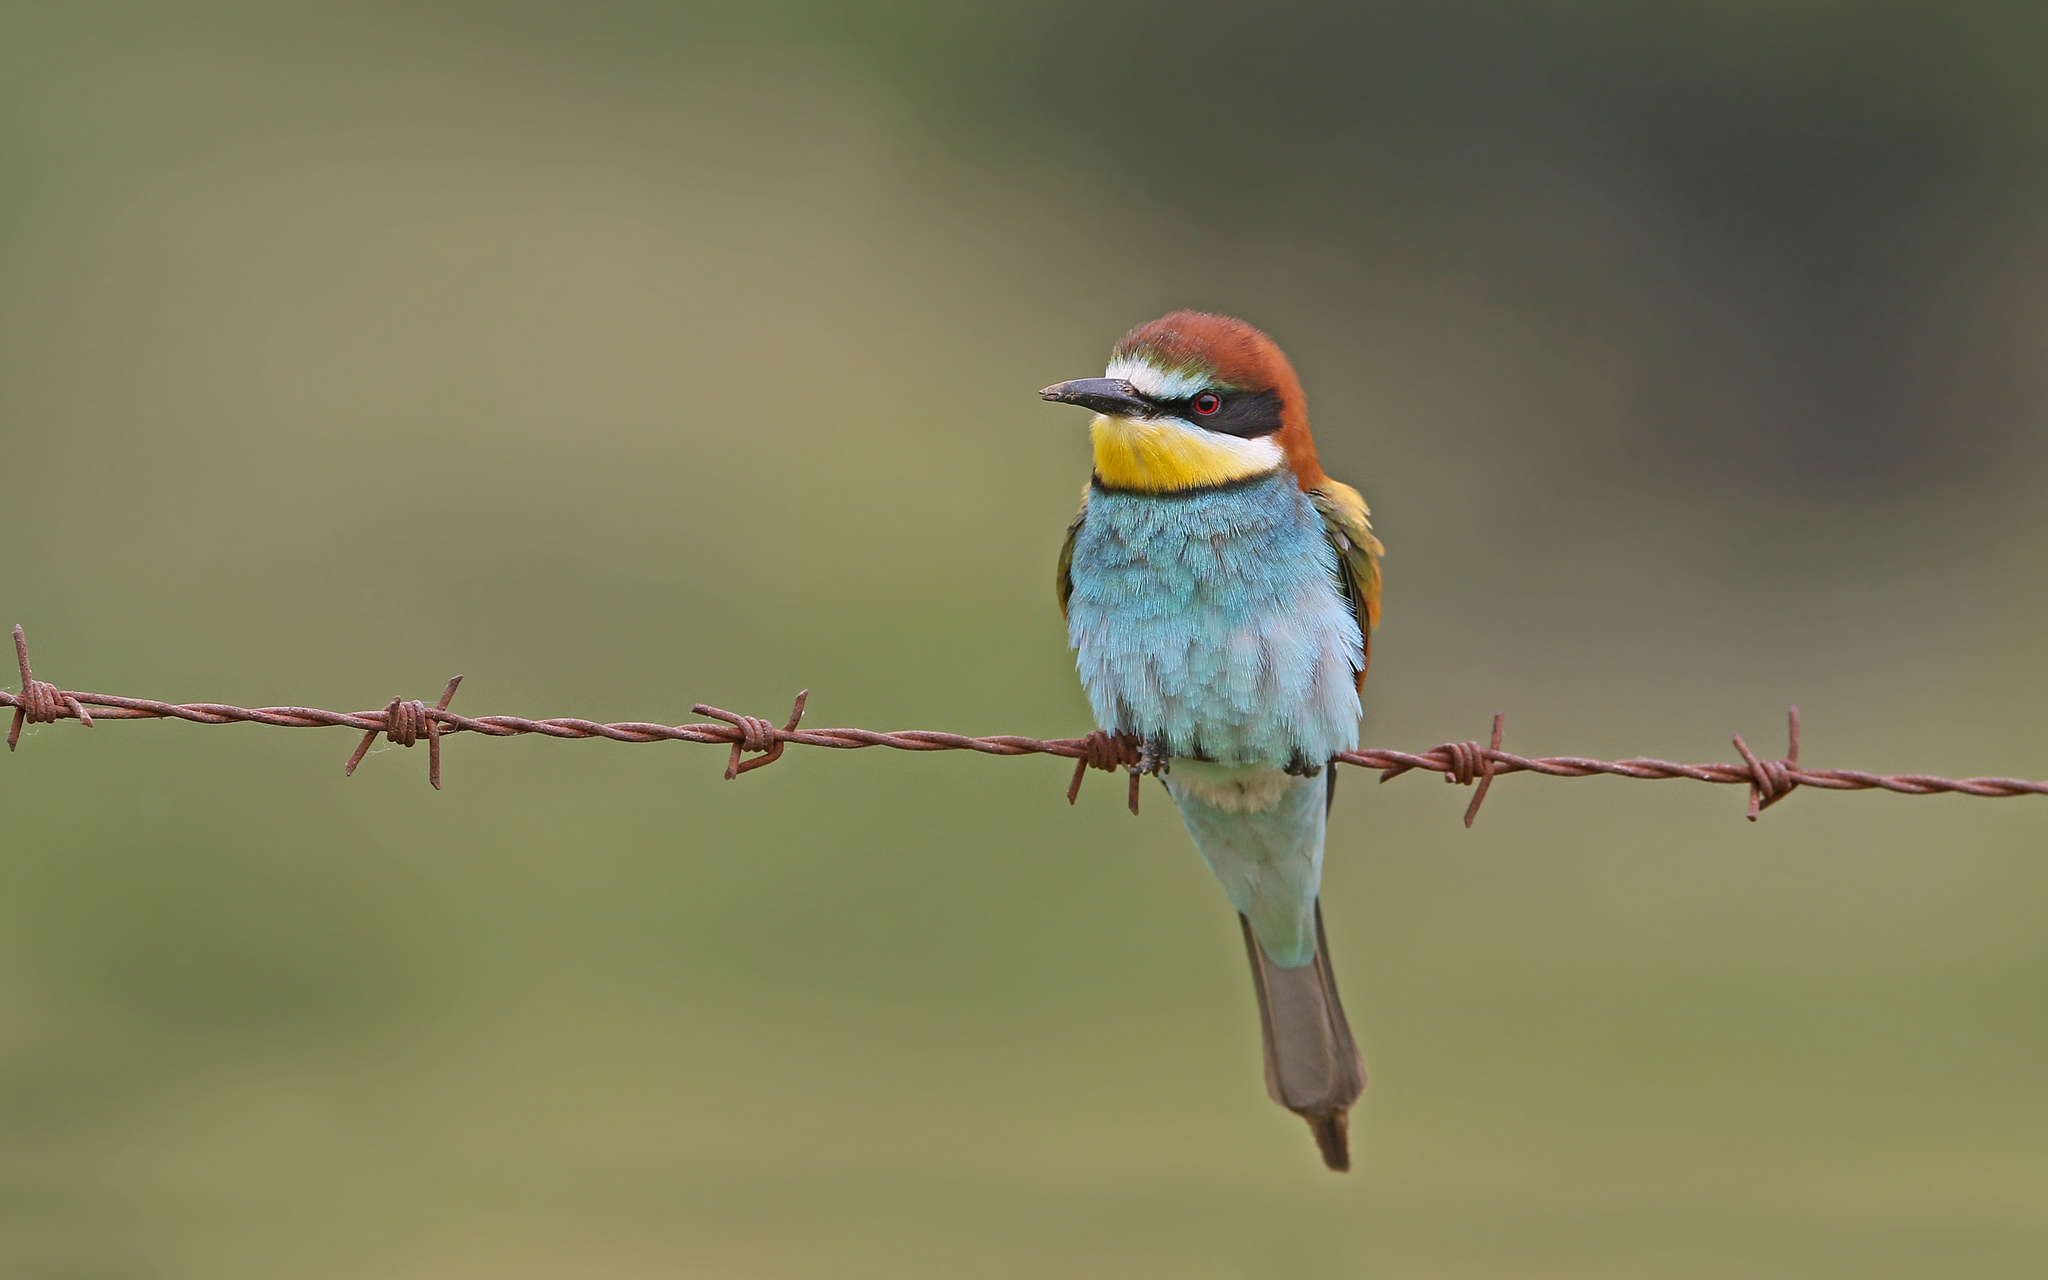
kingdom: Animalia
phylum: Chordata
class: Aves
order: Coraciiformes
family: Meropidae
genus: Merops
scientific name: Merops apiaster
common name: European bee-eater
